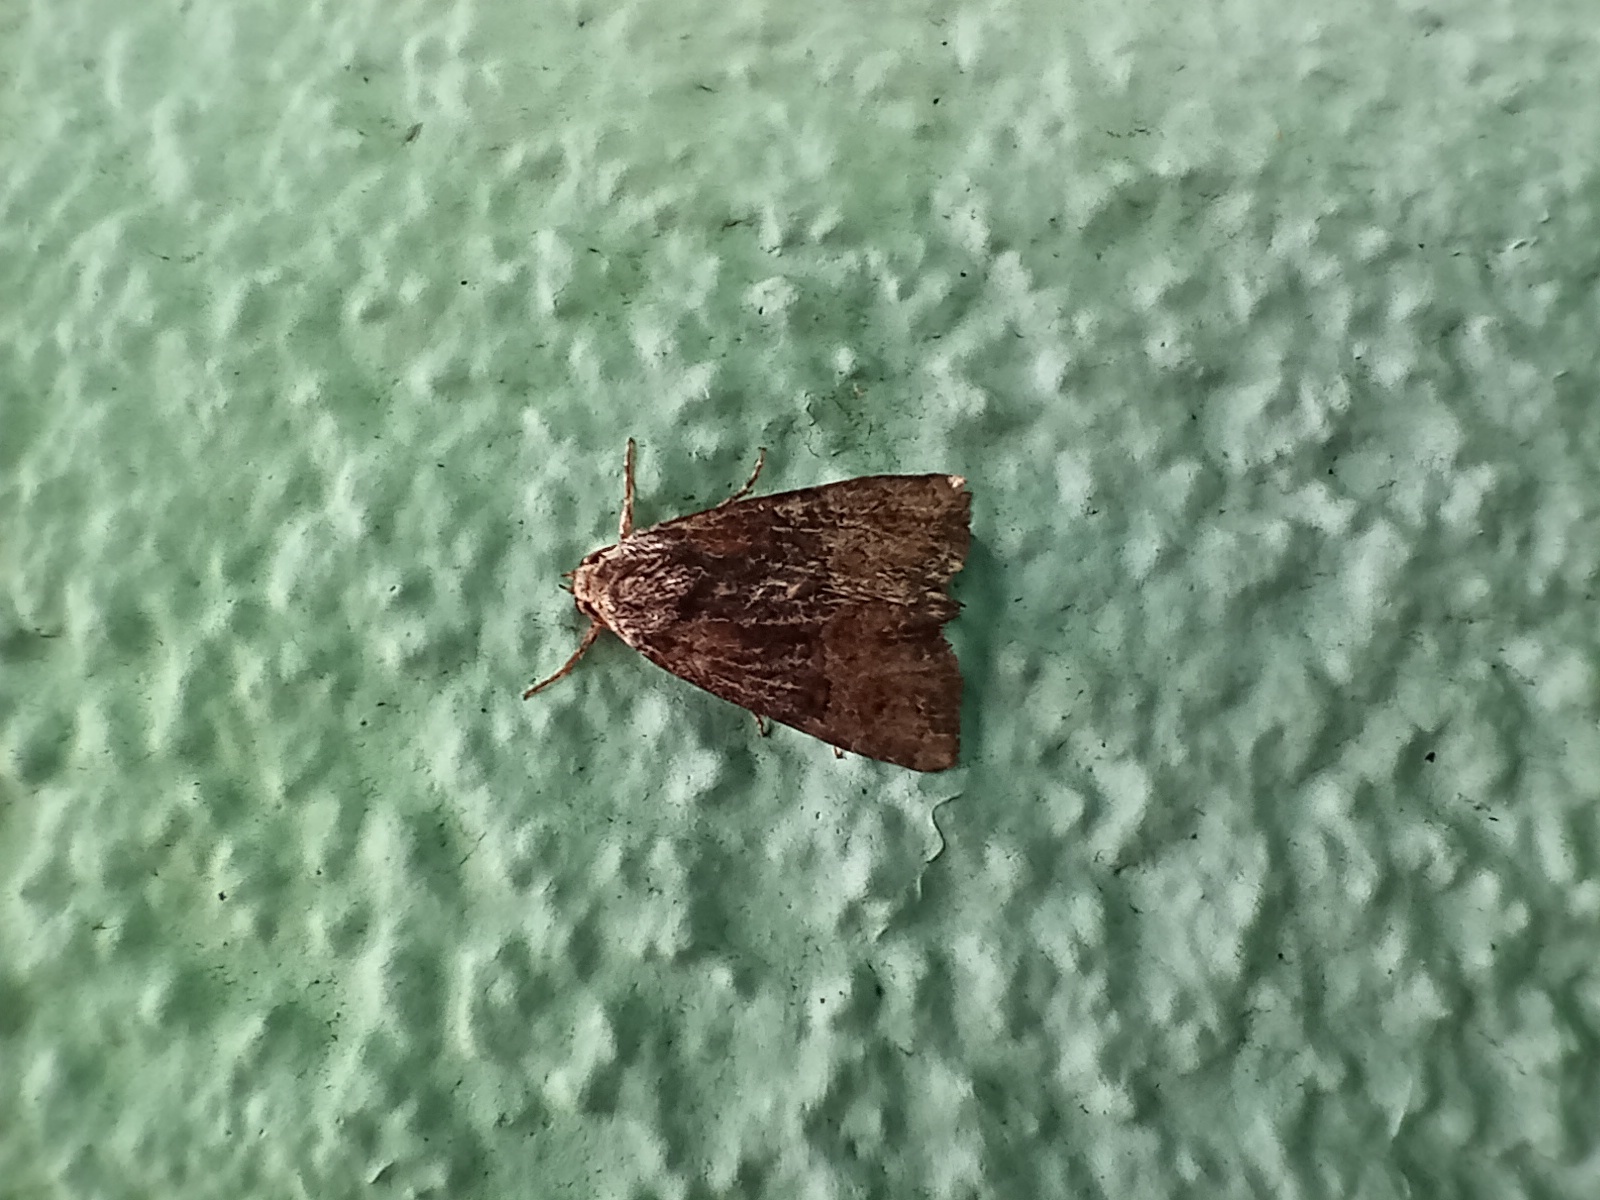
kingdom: Animalia
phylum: Arthropoda
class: Insecta
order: Lepidoptera
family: Noctuidae
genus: Mesoligia
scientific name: Mesoligia furuncula
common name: Cloaked minor
